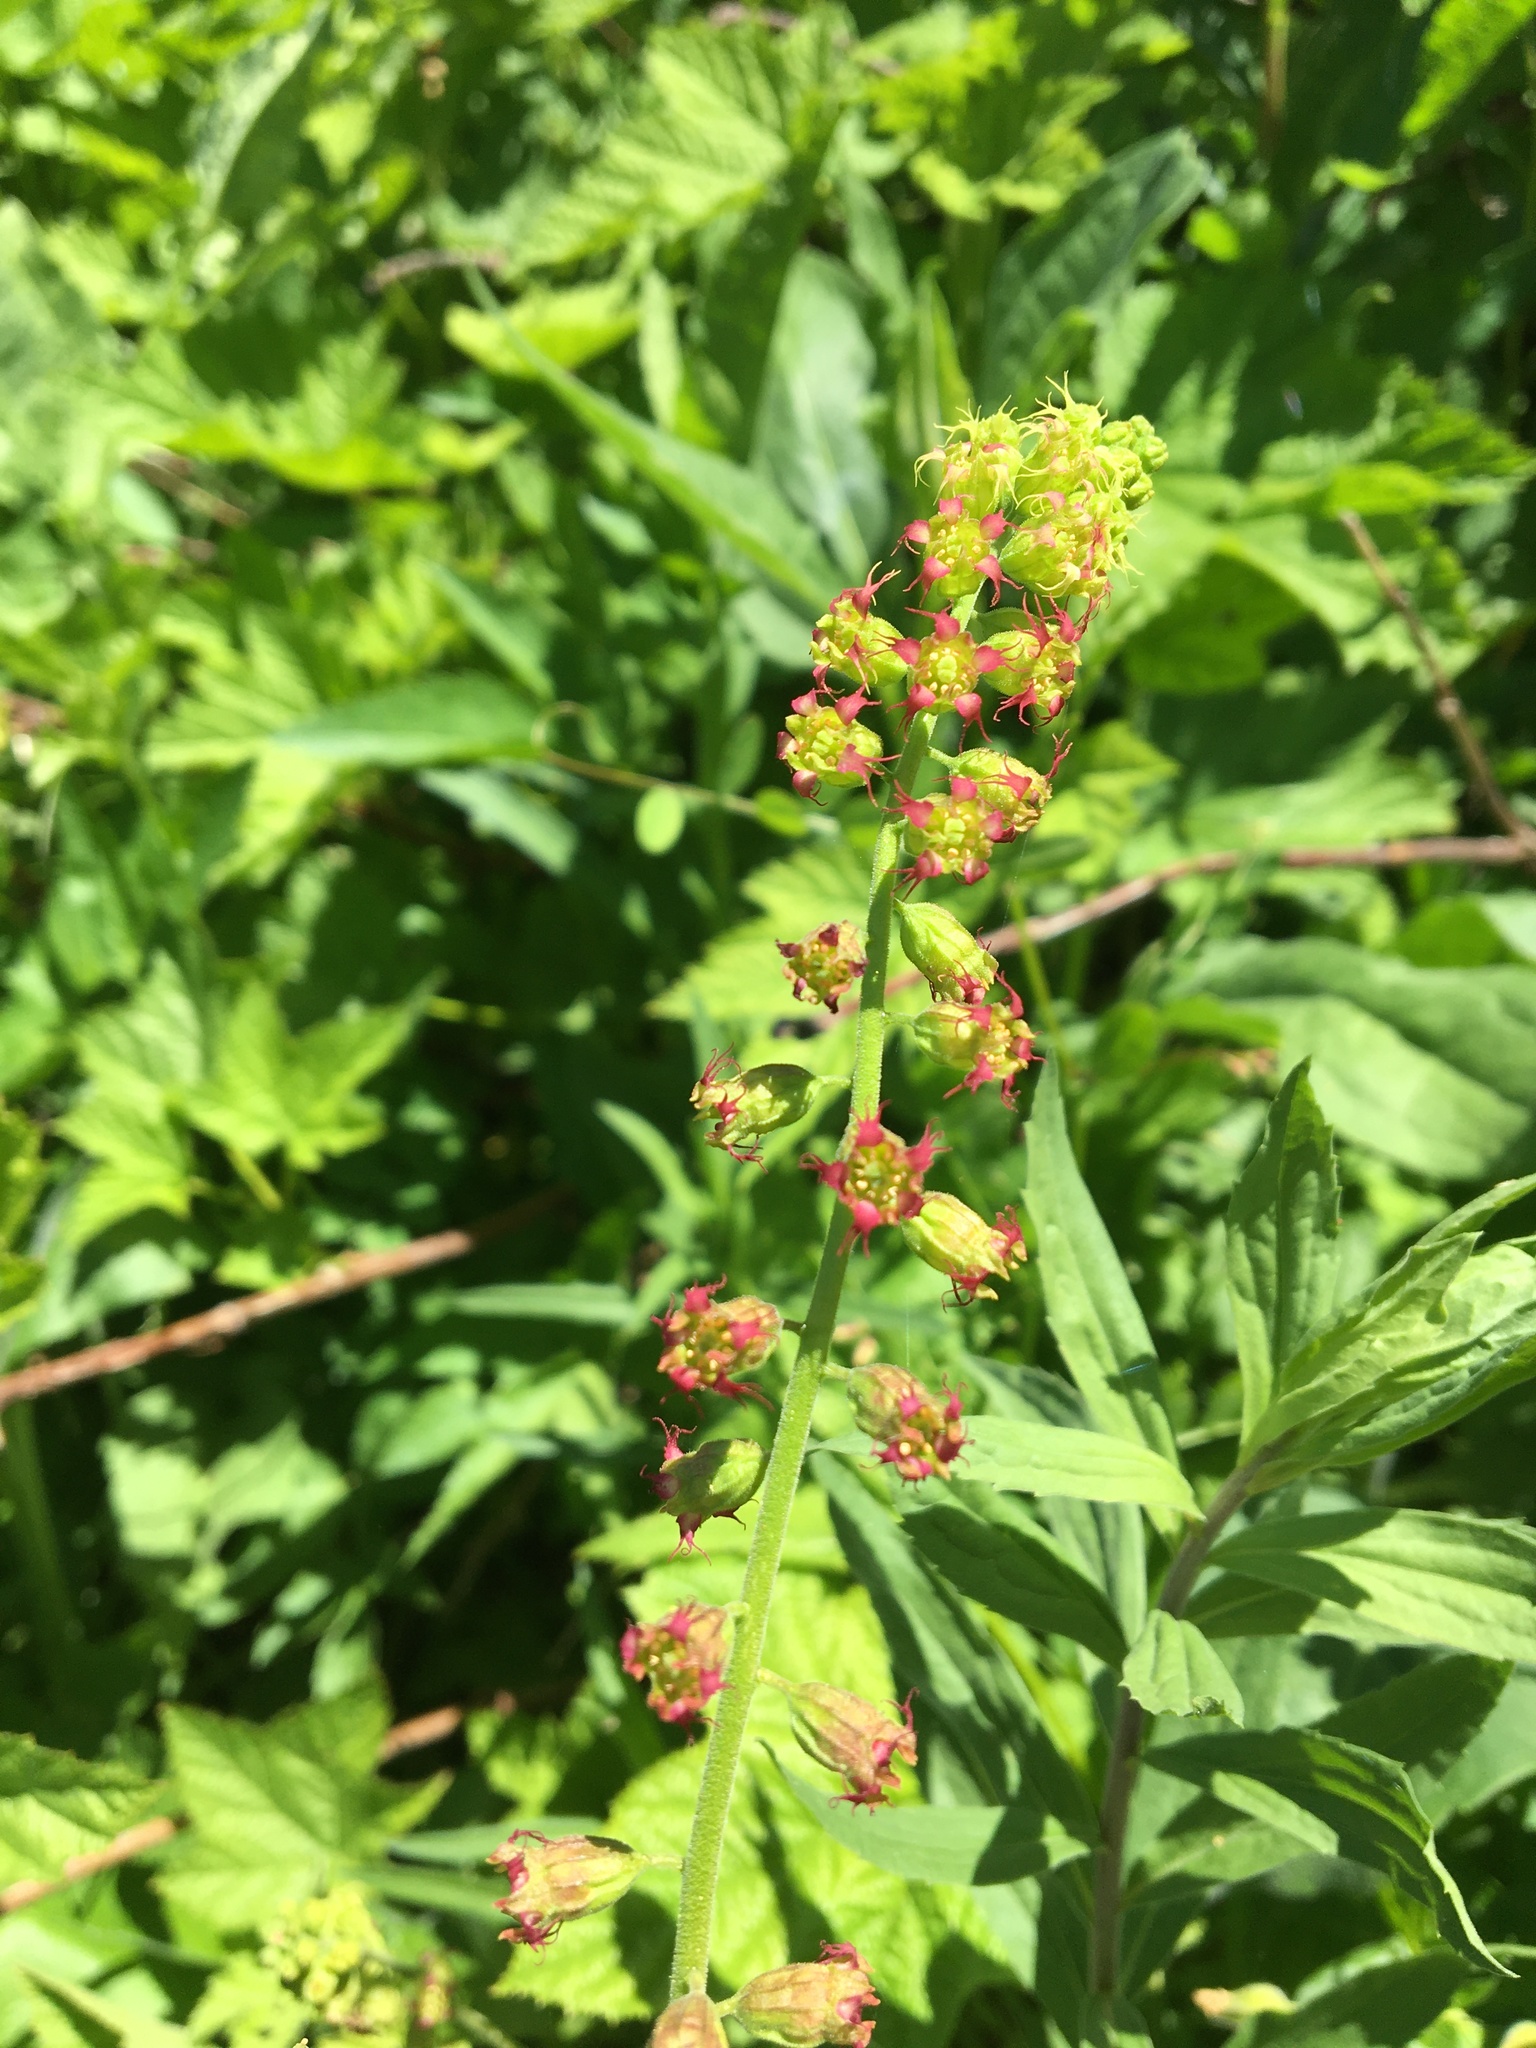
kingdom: Plantae
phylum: Tracheophyta
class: Magnoliopsida
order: Saxifragales
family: Saxifragaceae
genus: Tellima
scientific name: Tellima grandiflora
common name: Fringecups
